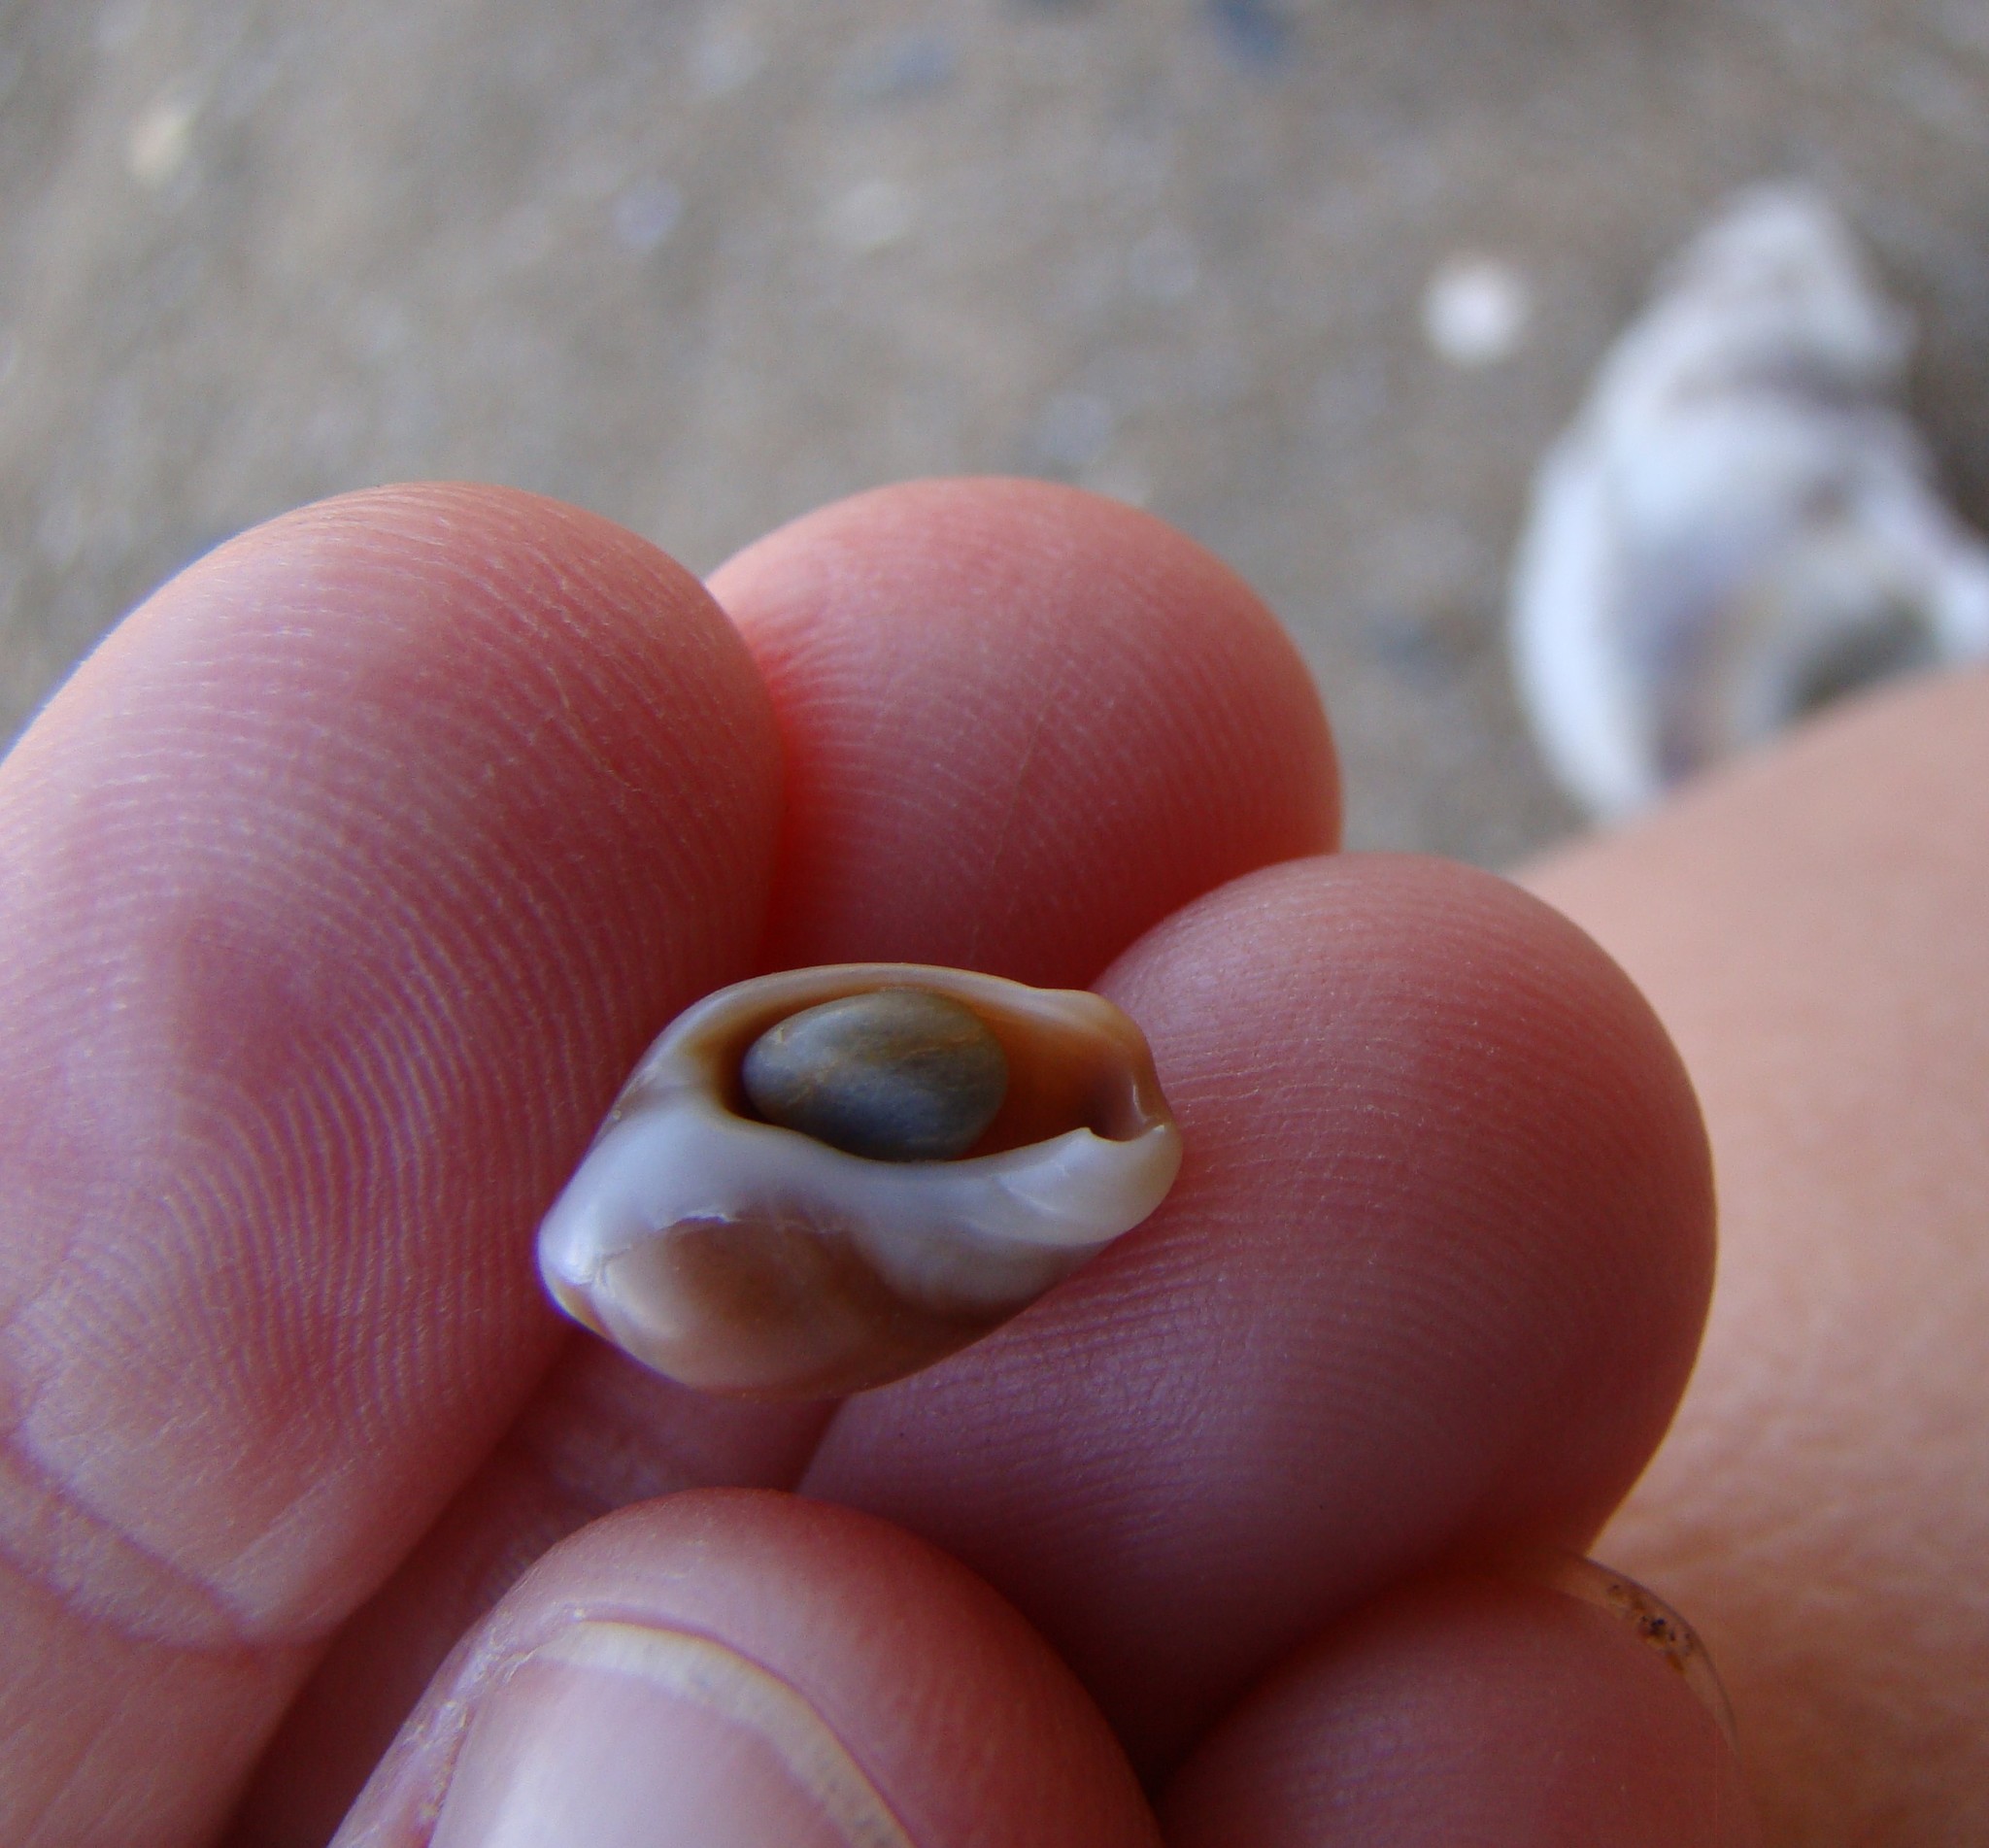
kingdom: Animalia
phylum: Mollusca
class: Gastropoda
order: Neogastropoda
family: Ancillariidae
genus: Amalda
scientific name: Amalda depressa
